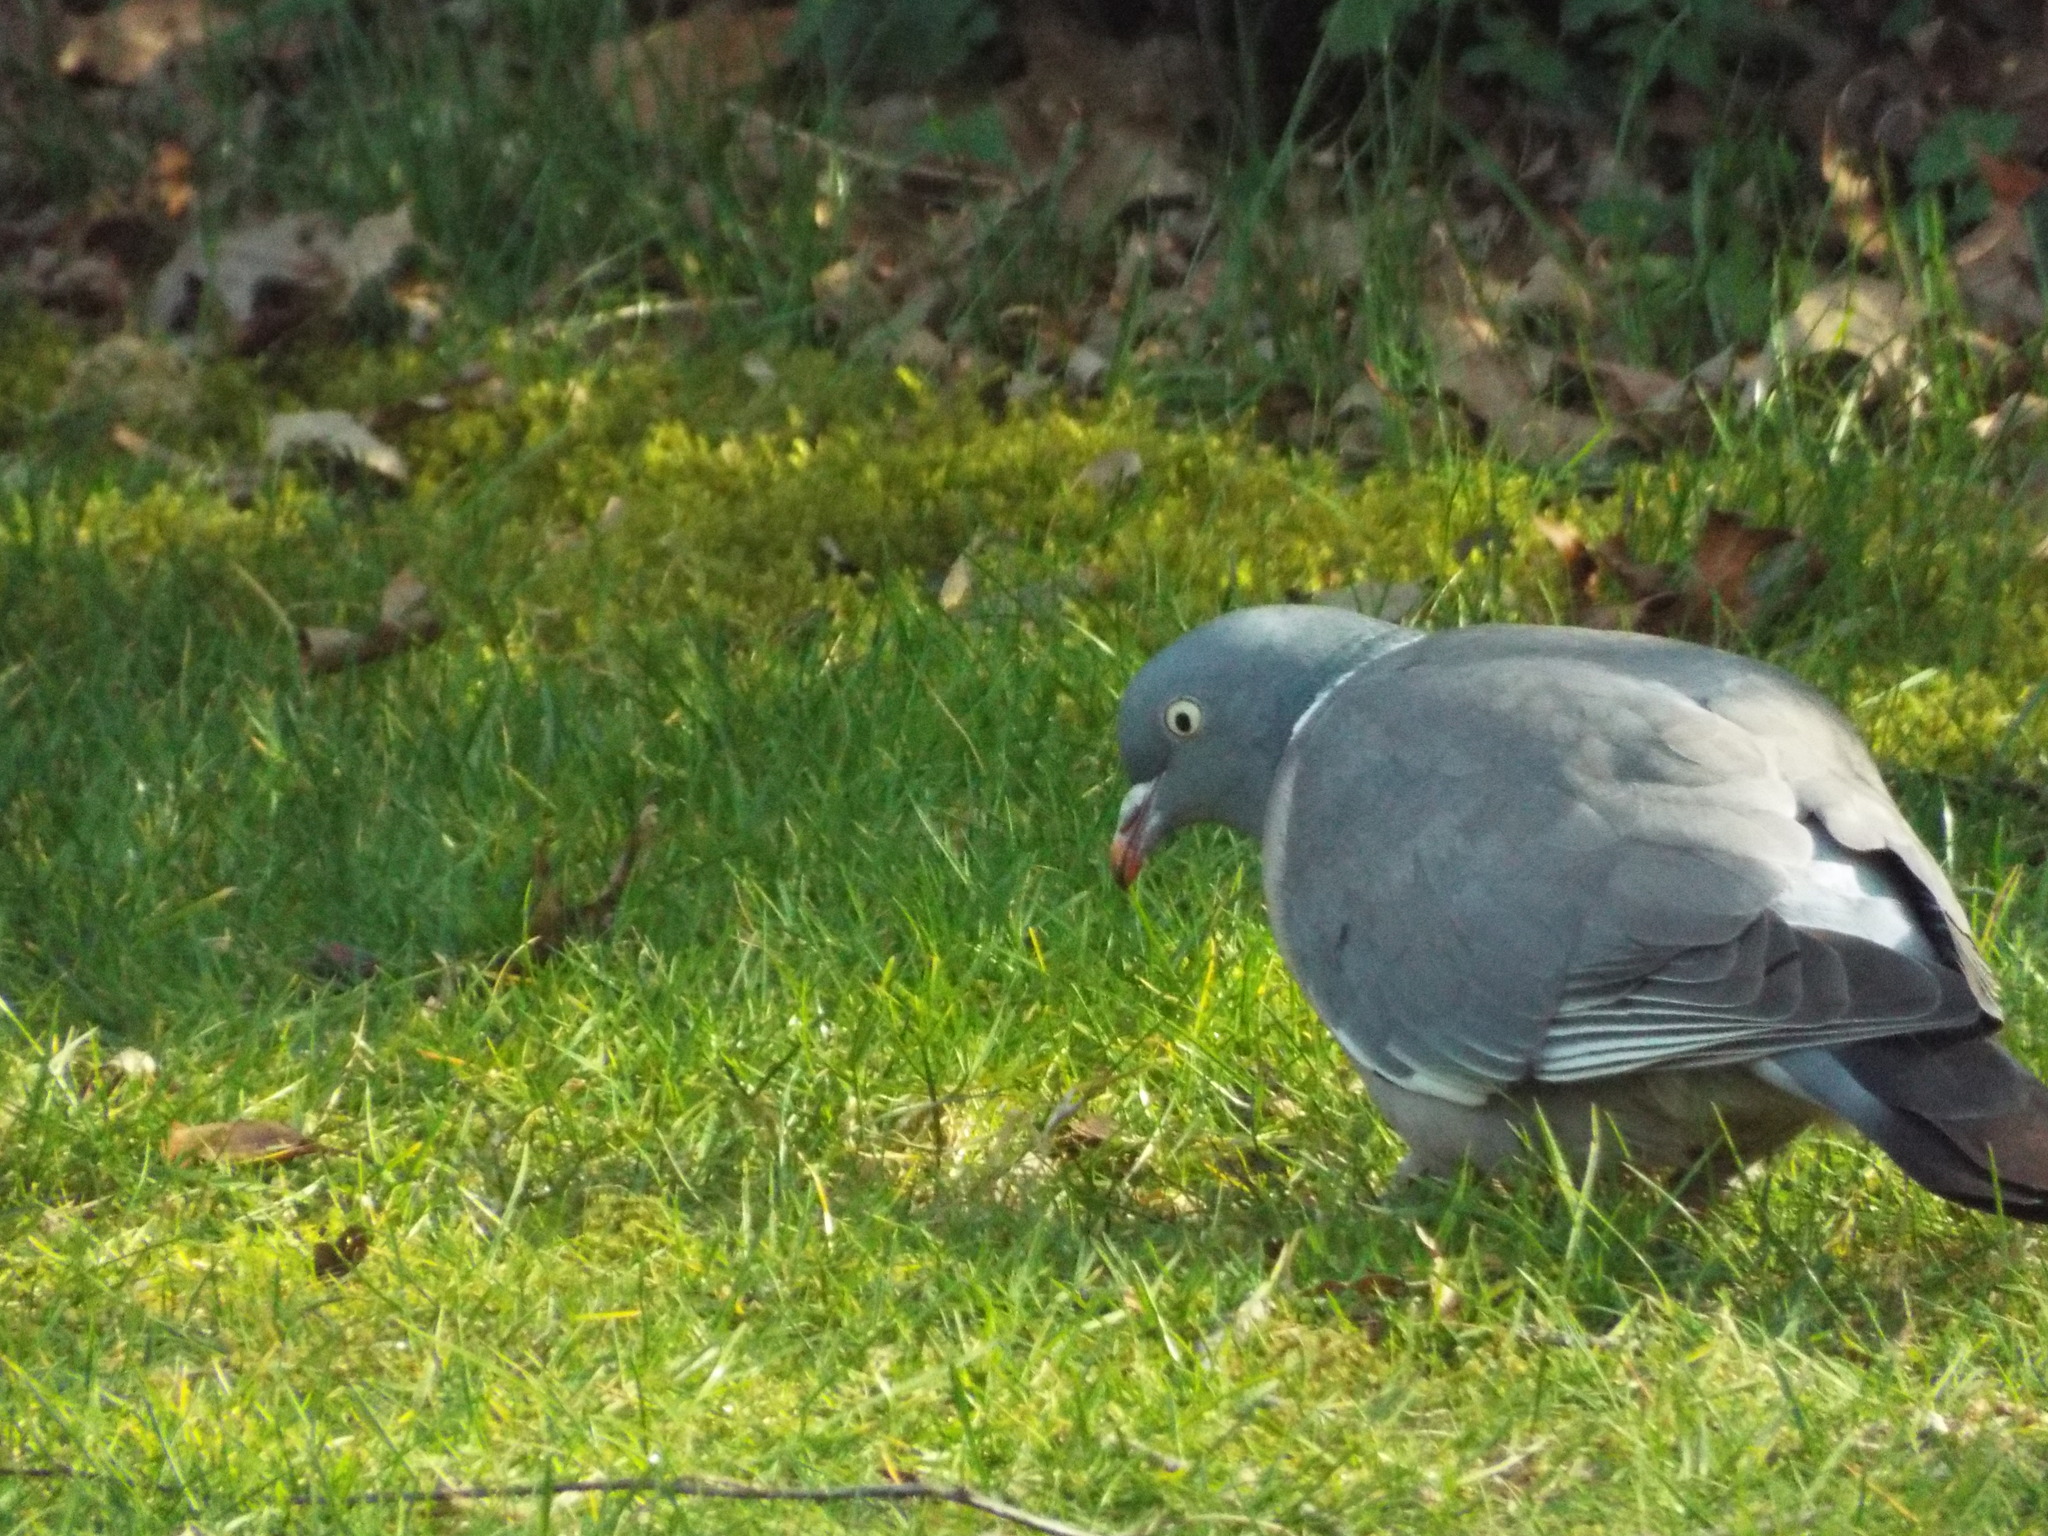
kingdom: Animalia
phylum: Chordata
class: Aves
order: Columbiformes
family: Columbidae
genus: Columba
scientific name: Columba palumbus
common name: Common wood pigeon
